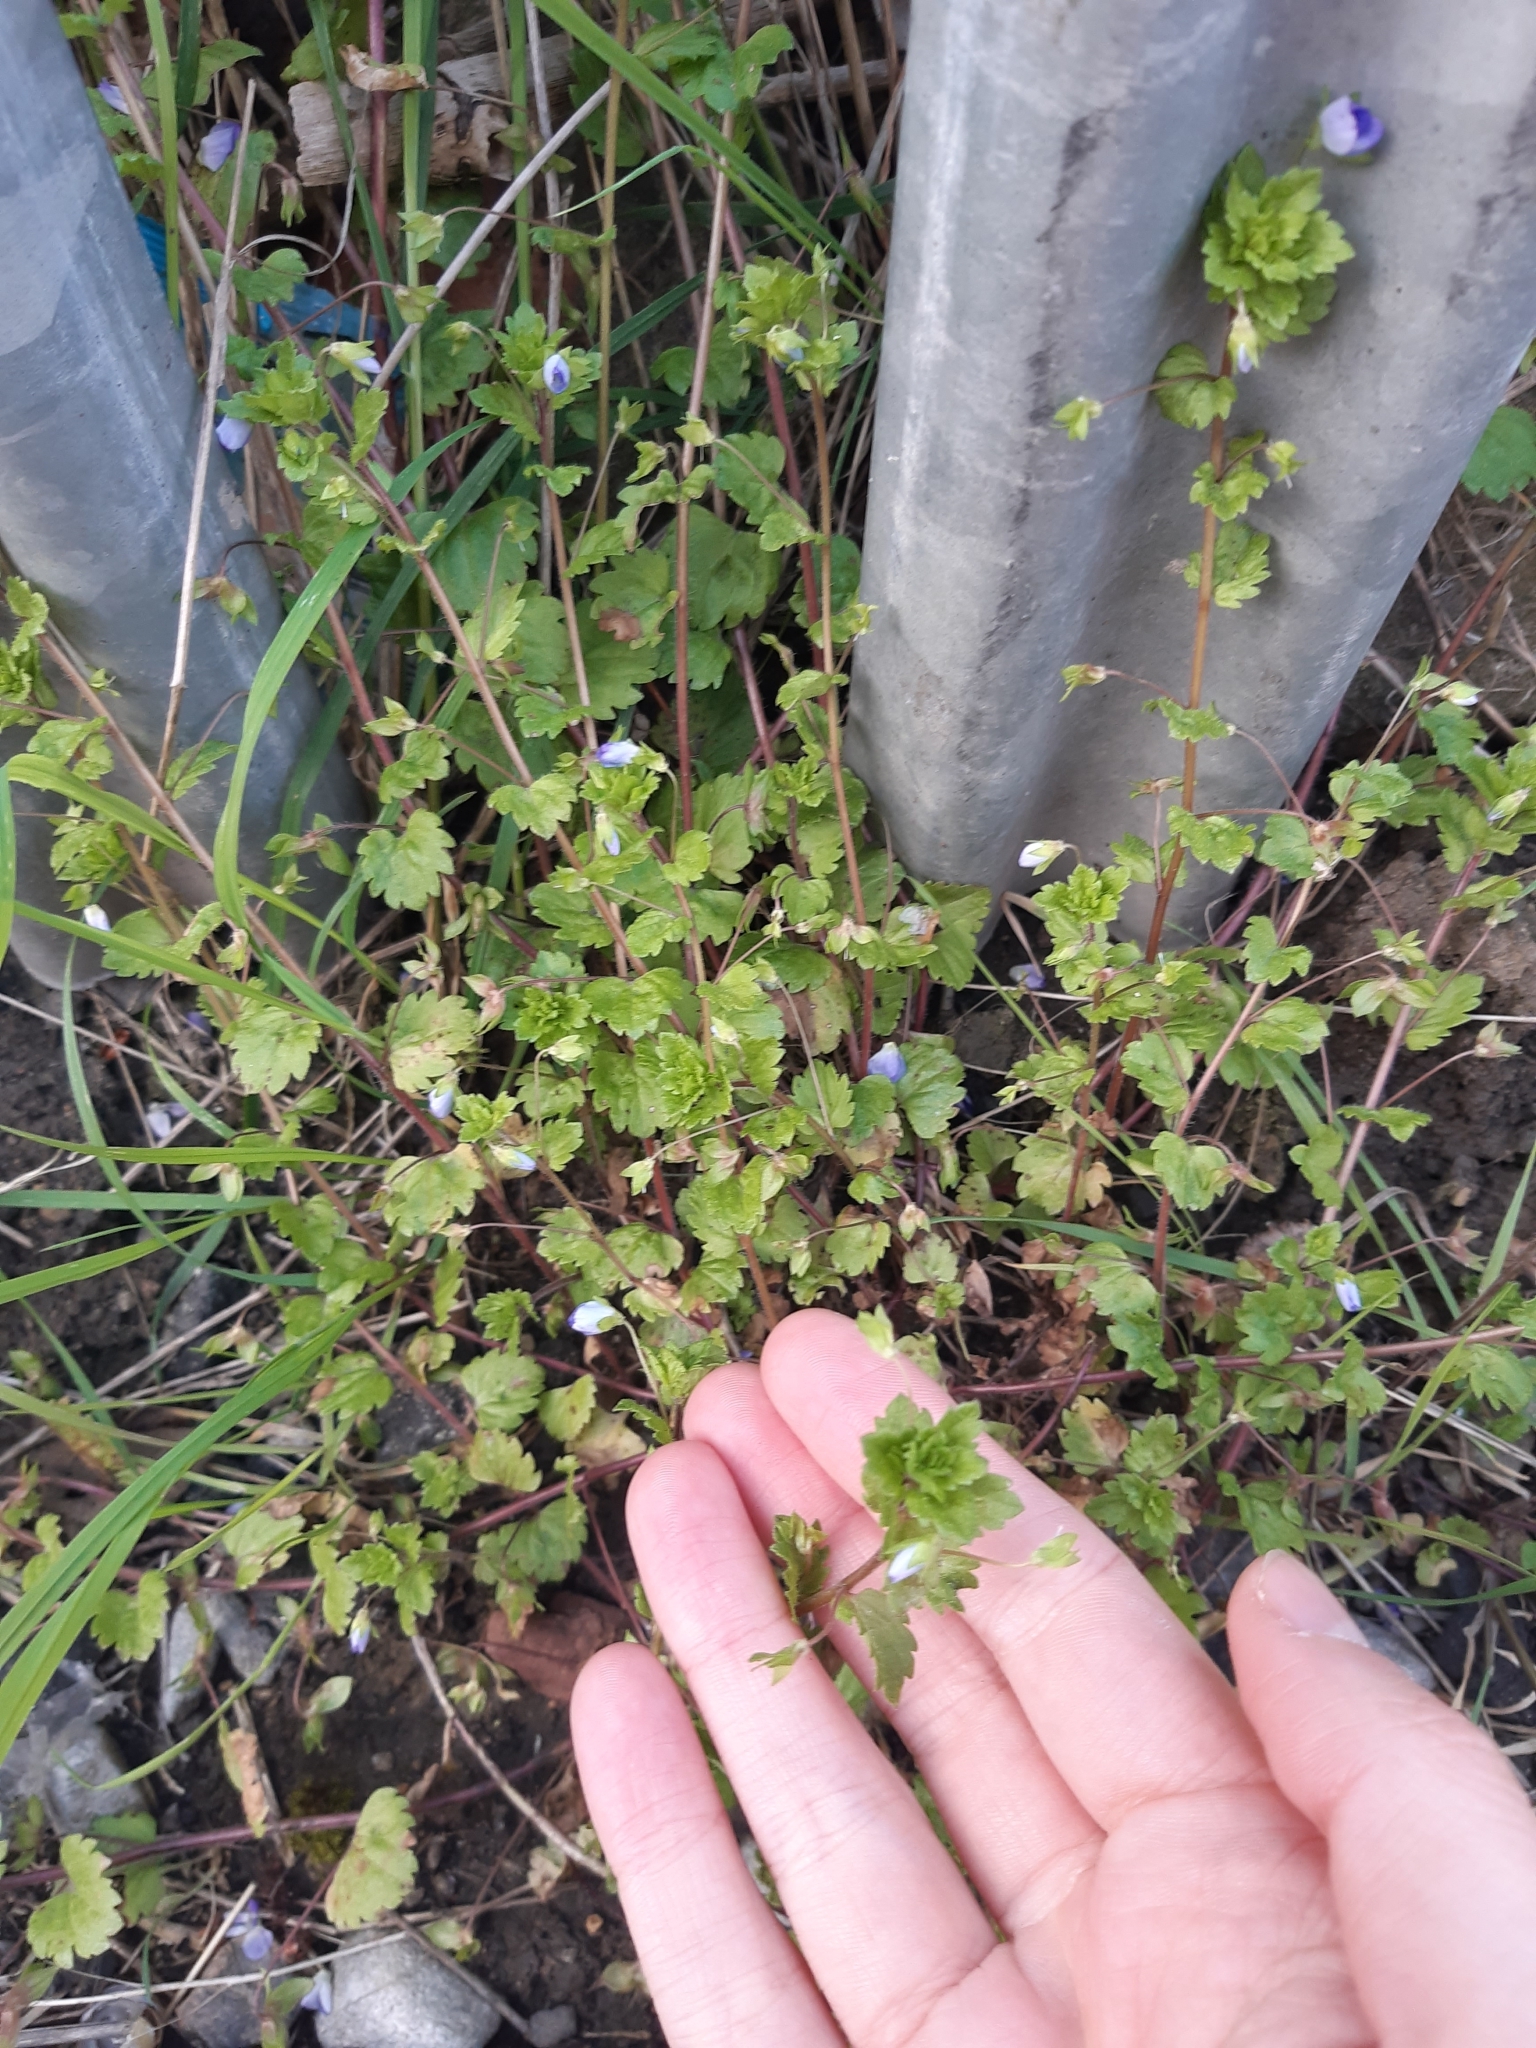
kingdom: Plantae
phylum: Tracheophyta
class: Magnoliopsida
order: Lamiales
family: Plantaginaceae
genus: Veronica
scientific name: Veronica persica
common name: Common field-speedwell
